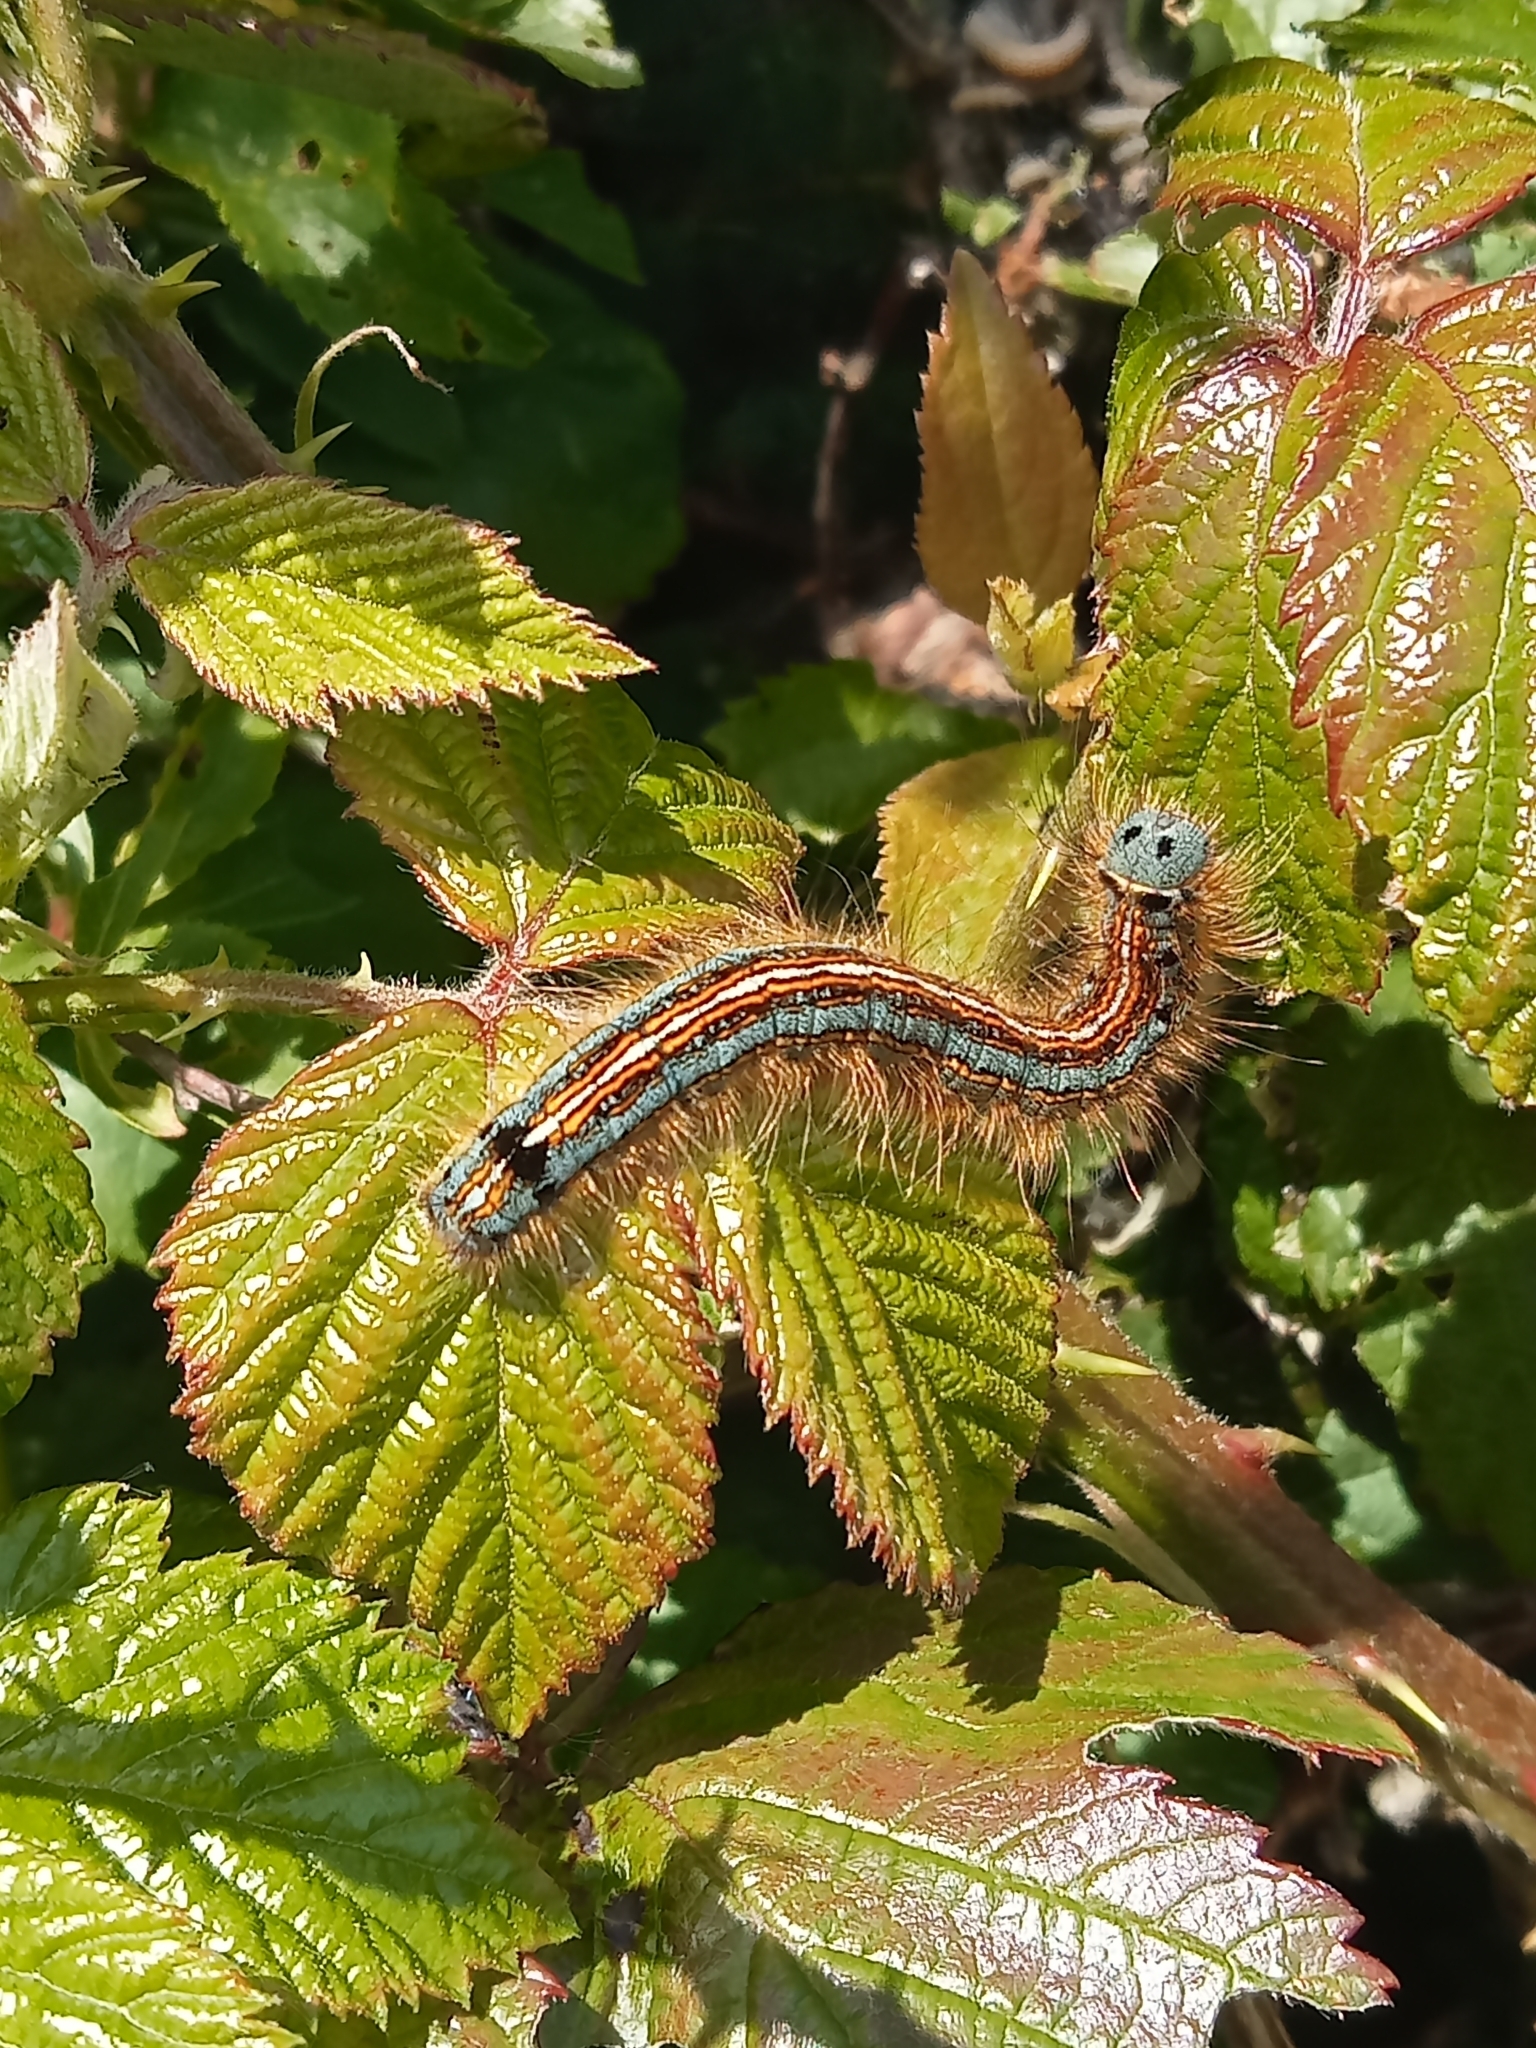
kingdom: Animalia
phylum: Arthropoda
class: Insecta
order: Lepidoptera
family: Lasiocampidae
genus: Malacosoma
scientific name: Malacosoma neustria
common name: The lackey
